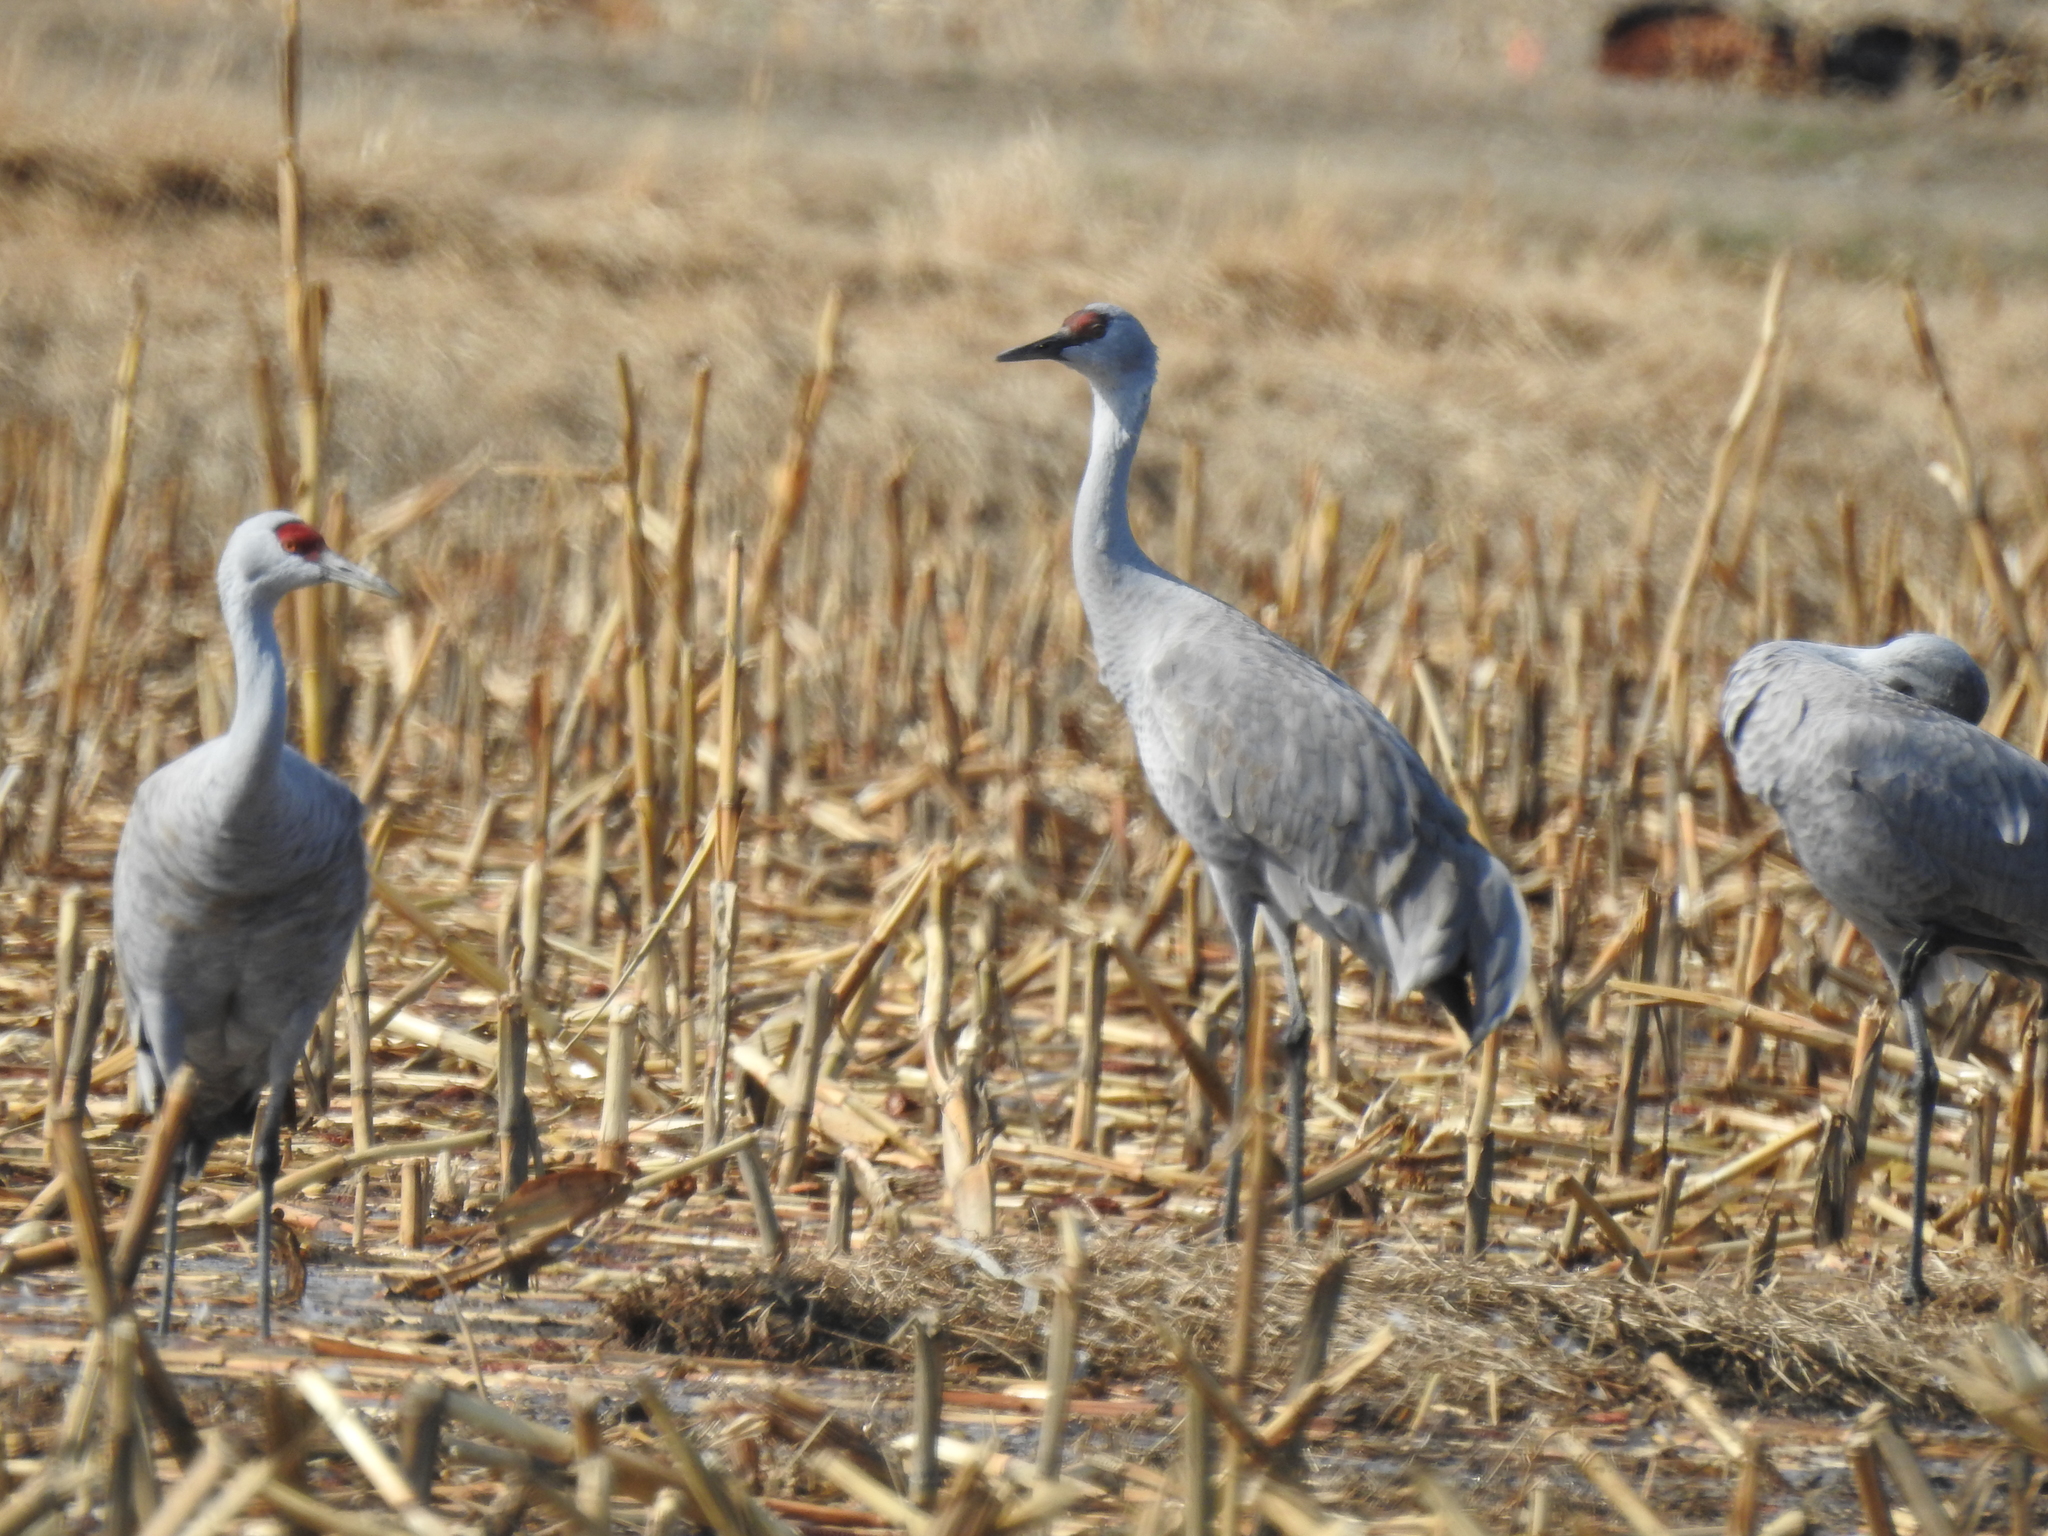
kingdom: Animalia
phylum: Chordata
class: Aves
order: Gruiformes
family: Gruidae
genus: Grus
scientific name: Grus canadensis
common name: Sandhill crane
